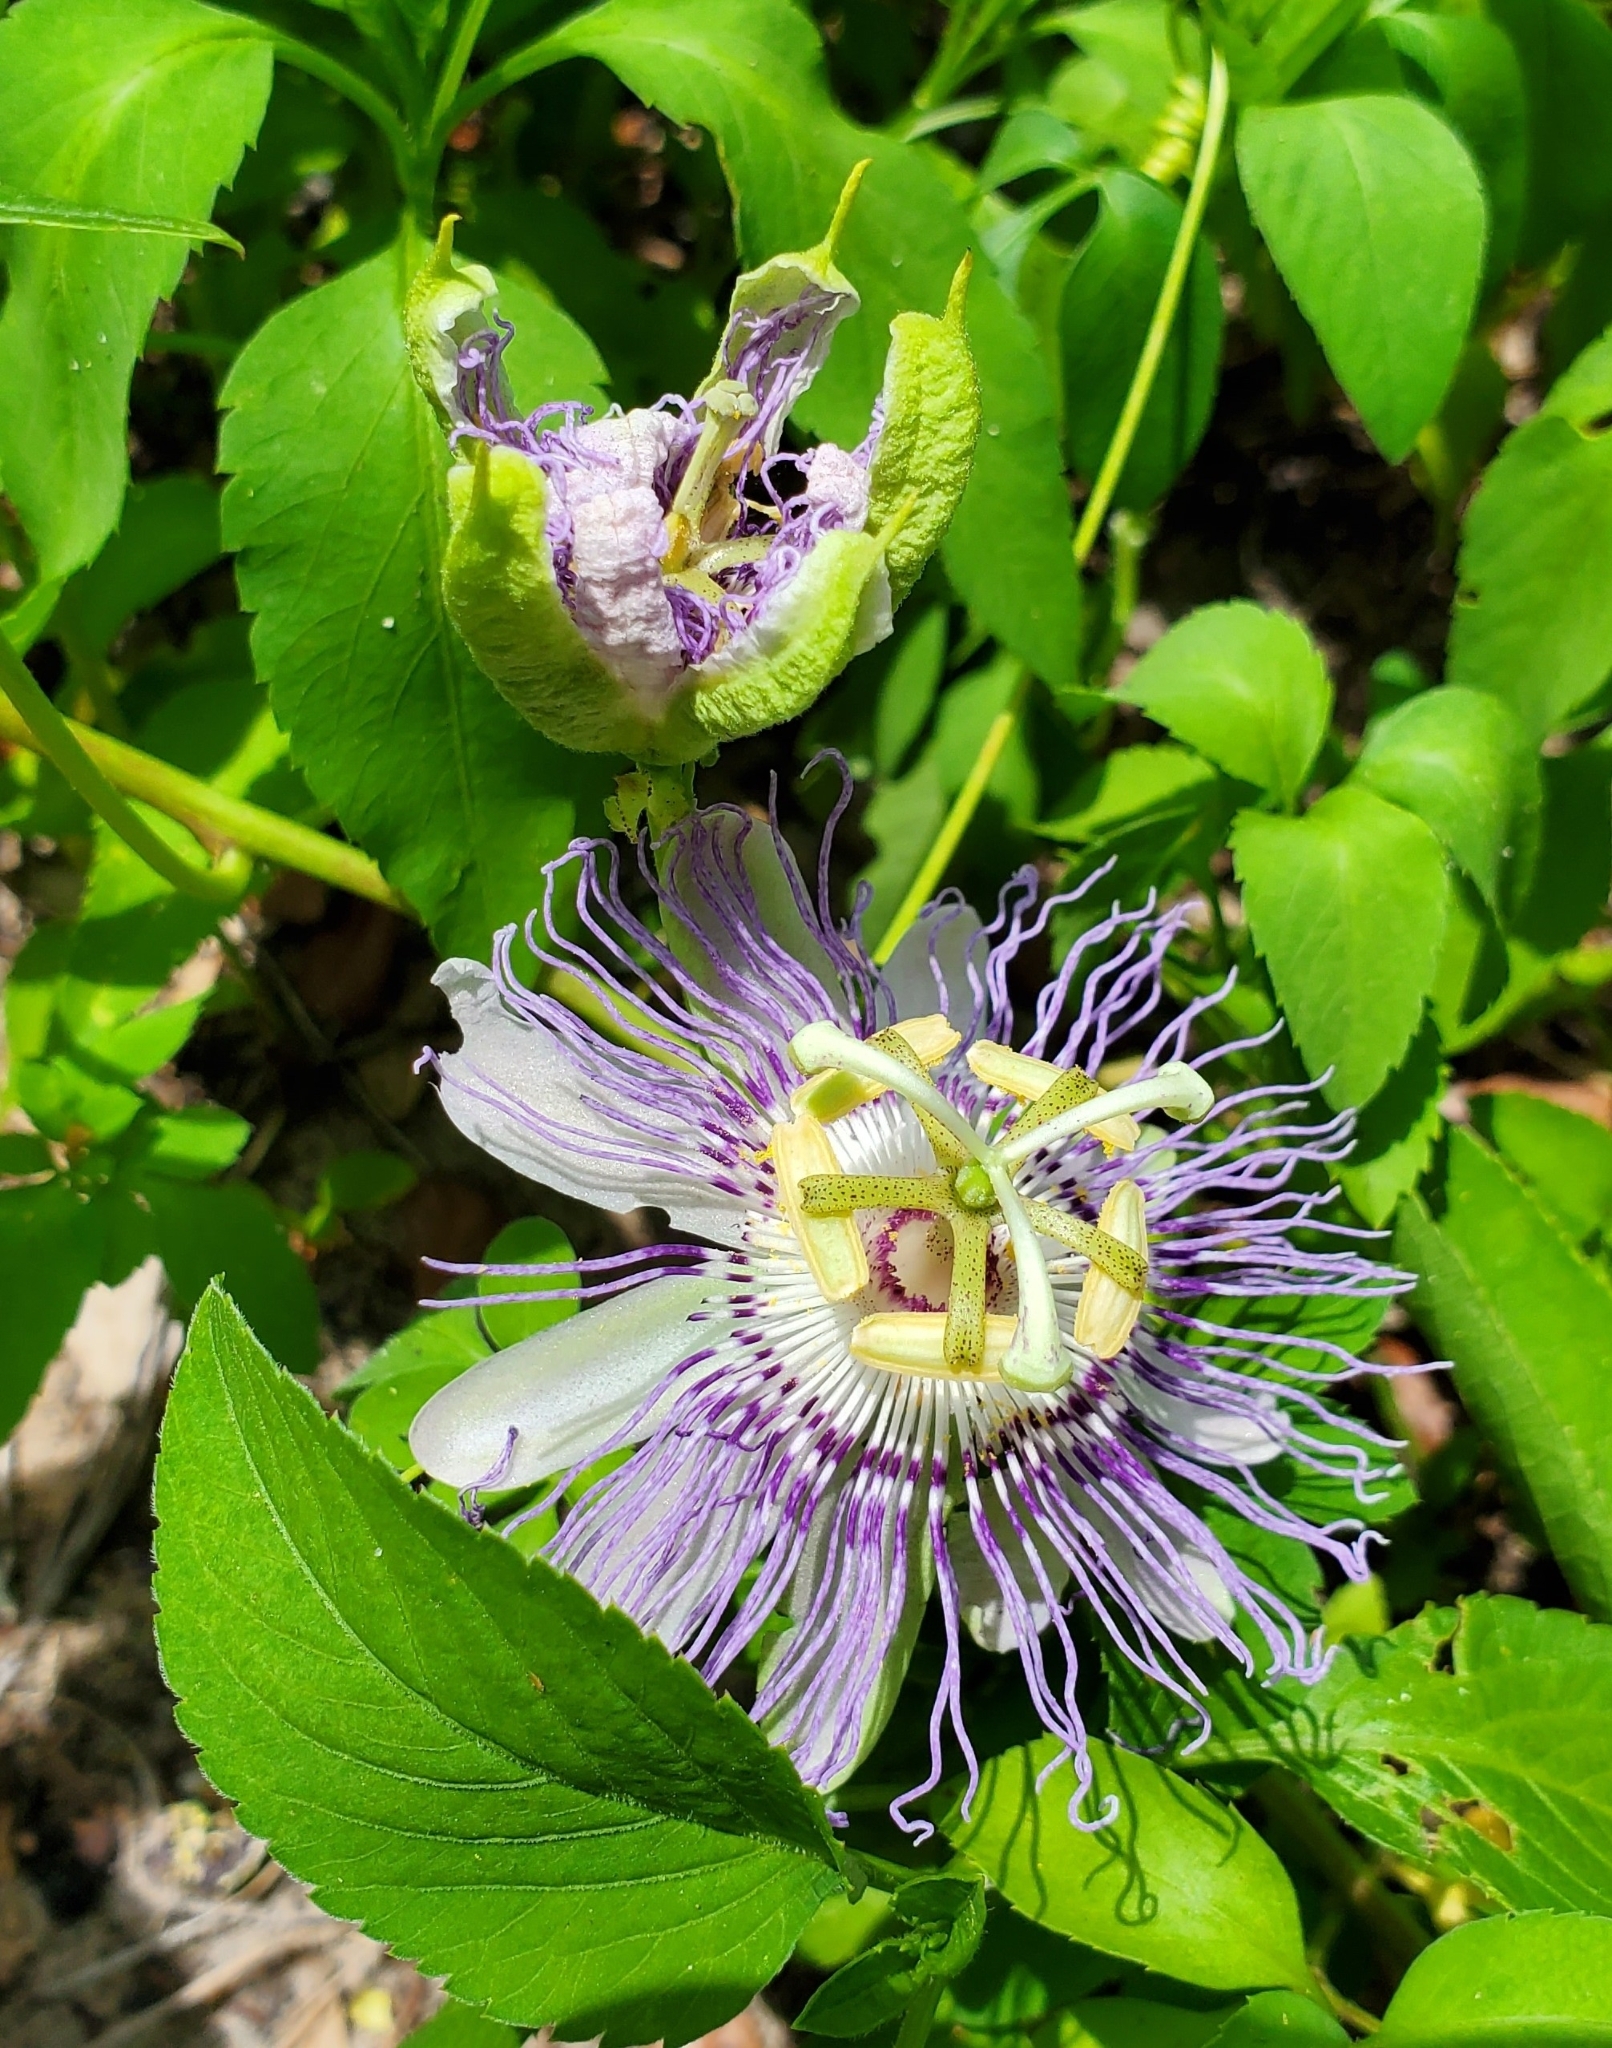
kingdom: Plantae
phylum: Tracheophyta
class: Magnoliopsida
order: Malpighiales
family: Passifloraceae
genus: Passiflora
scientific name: Passiflora incarnata
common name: Apricot-vine
